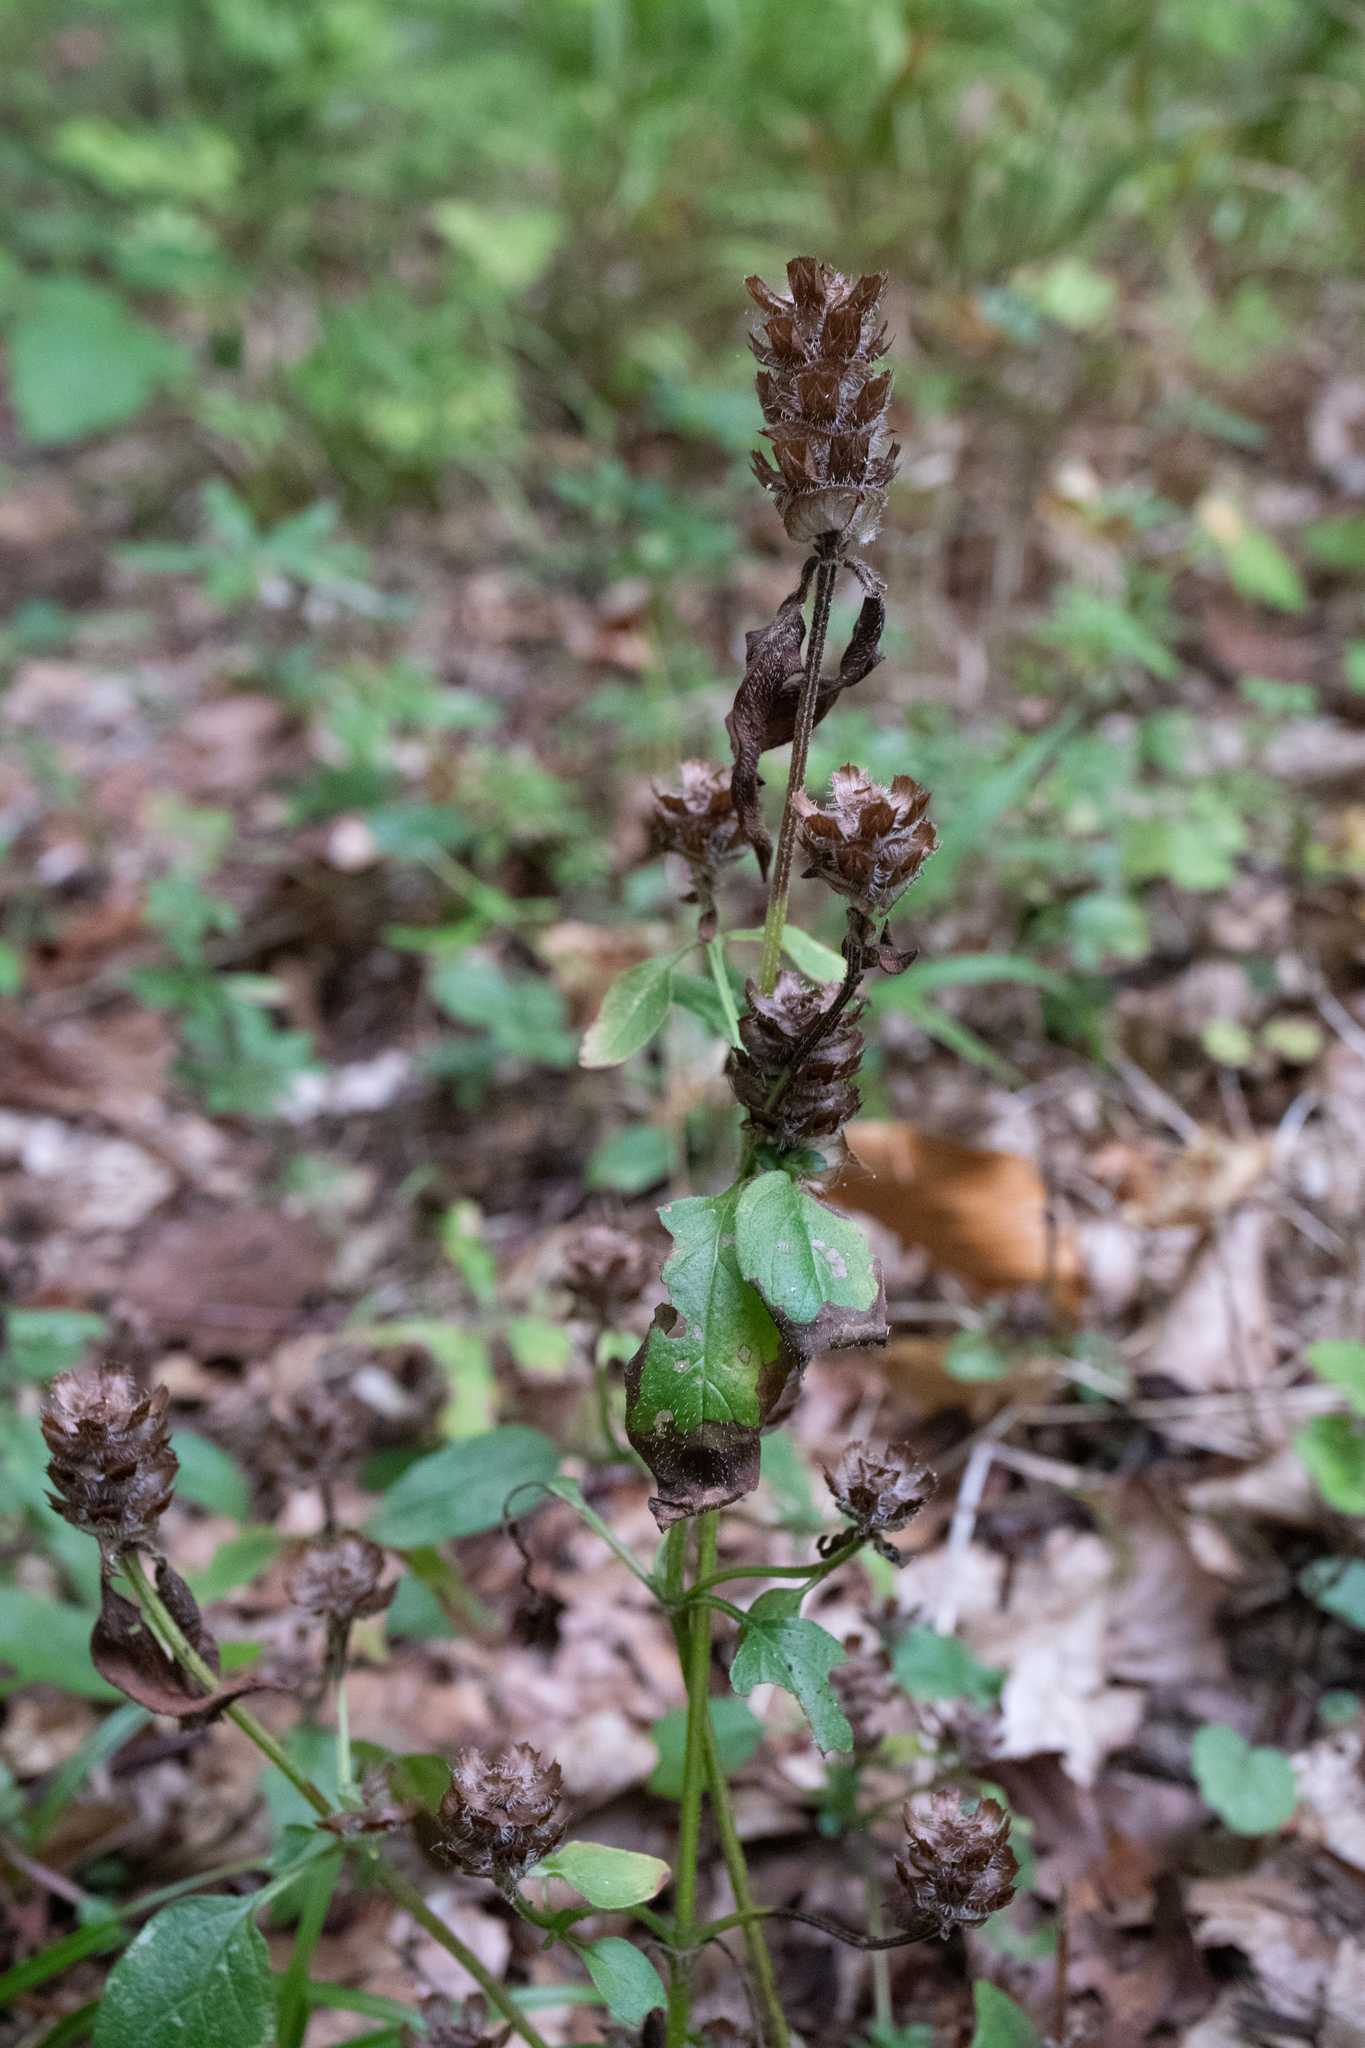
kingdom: Plantae
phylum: Tracheophyta
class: Magnoliopsida
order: Lamiales
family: Lamiaceae
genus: Prunella
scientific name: Prunella vulgaris
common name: Heal-all
